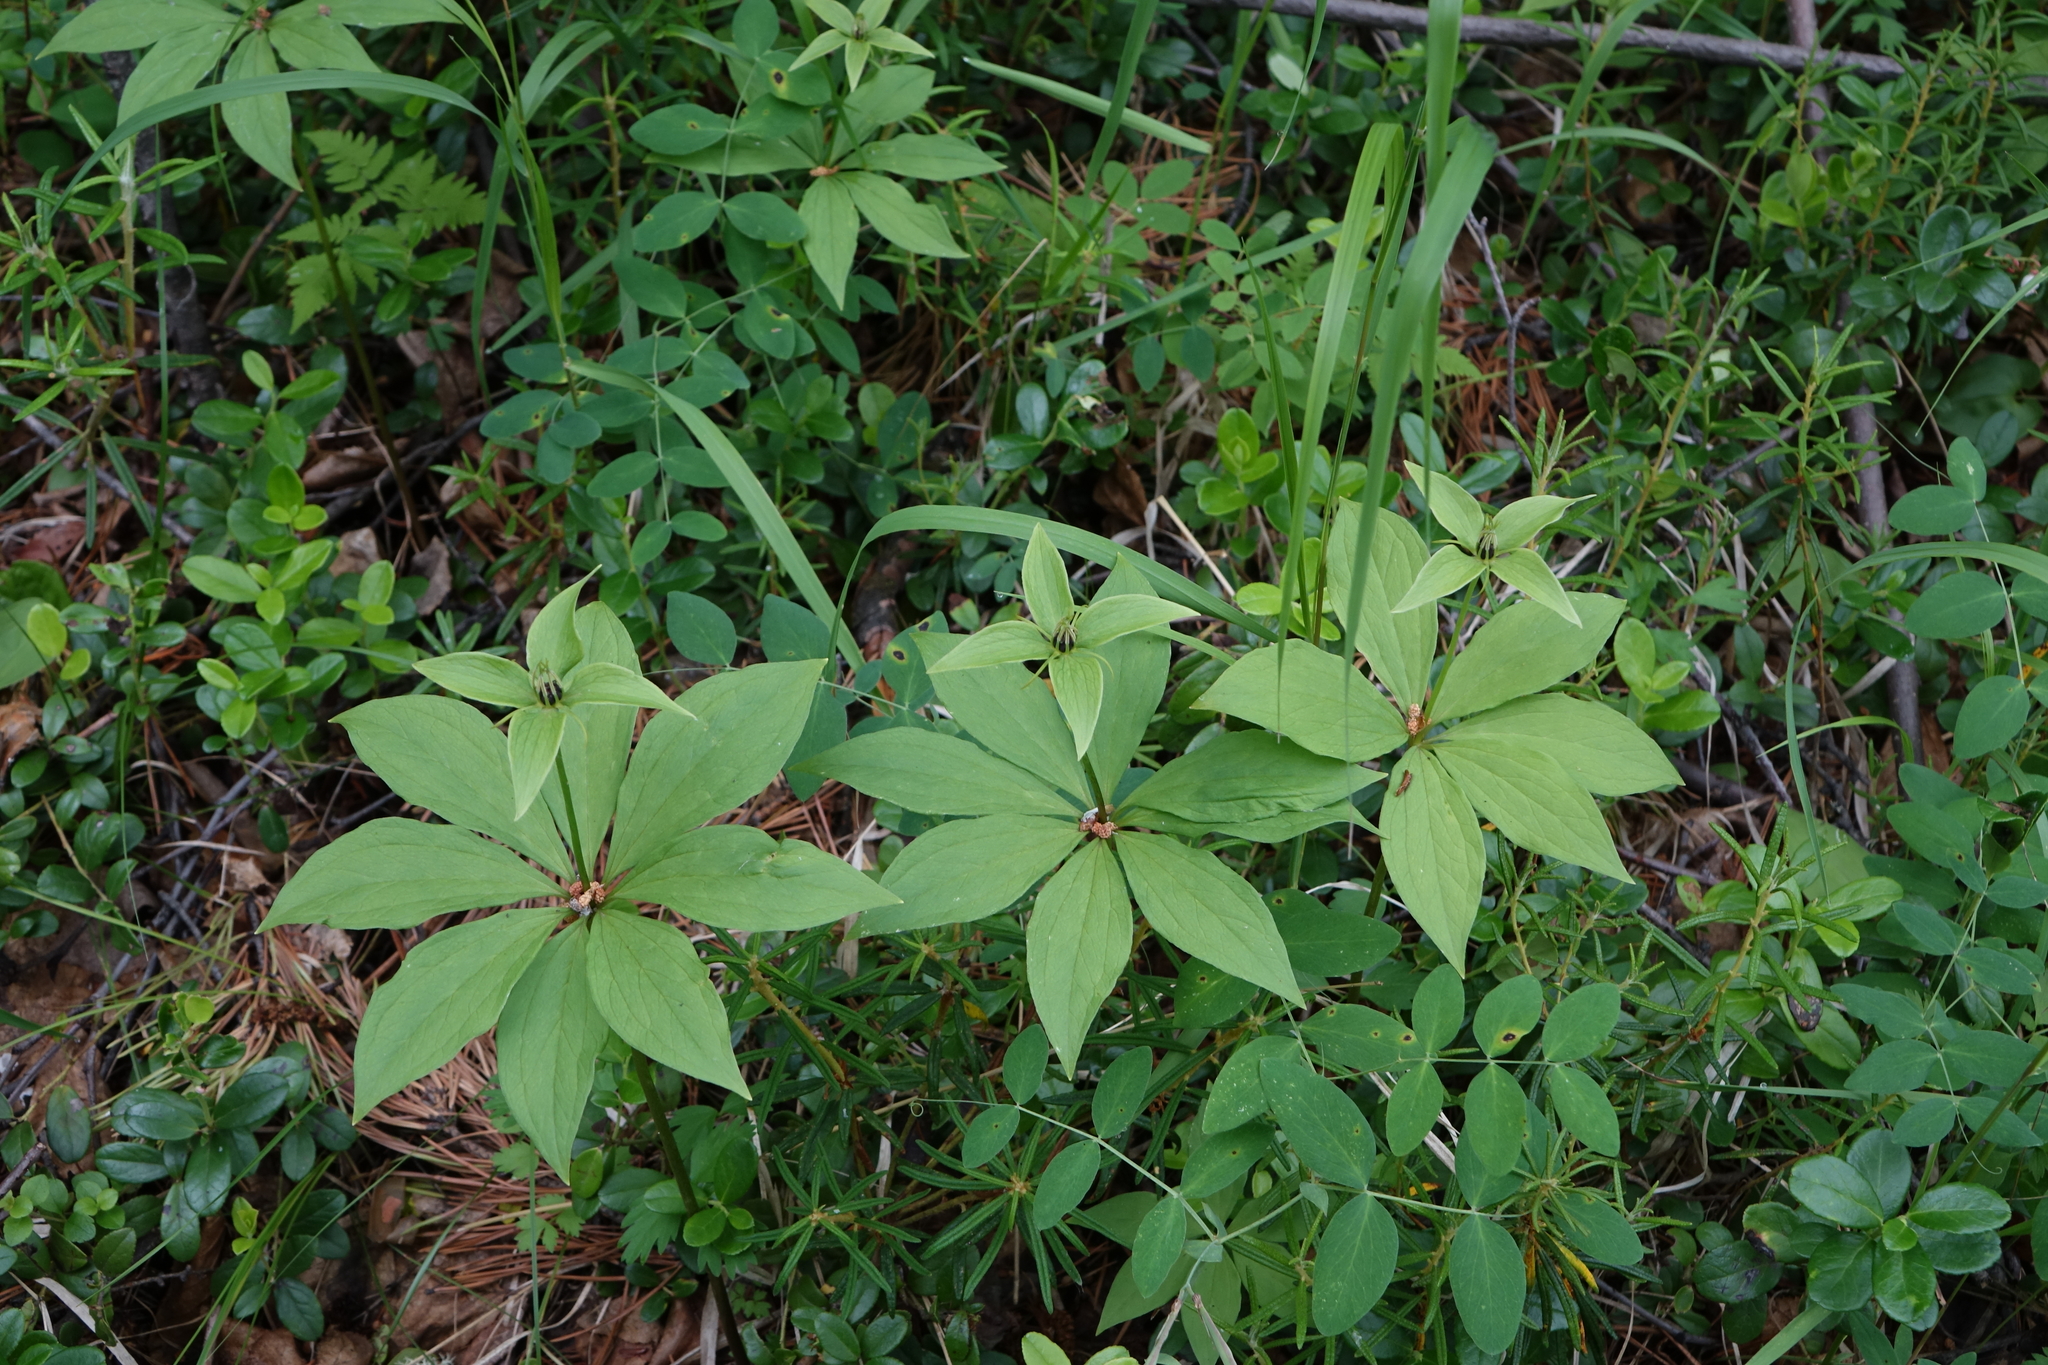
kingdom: Plantae
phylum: Tracheophyta
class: Liliopsida
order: Liliales
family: Melanthiaceae
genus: Paris
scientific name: Paris verticillata
